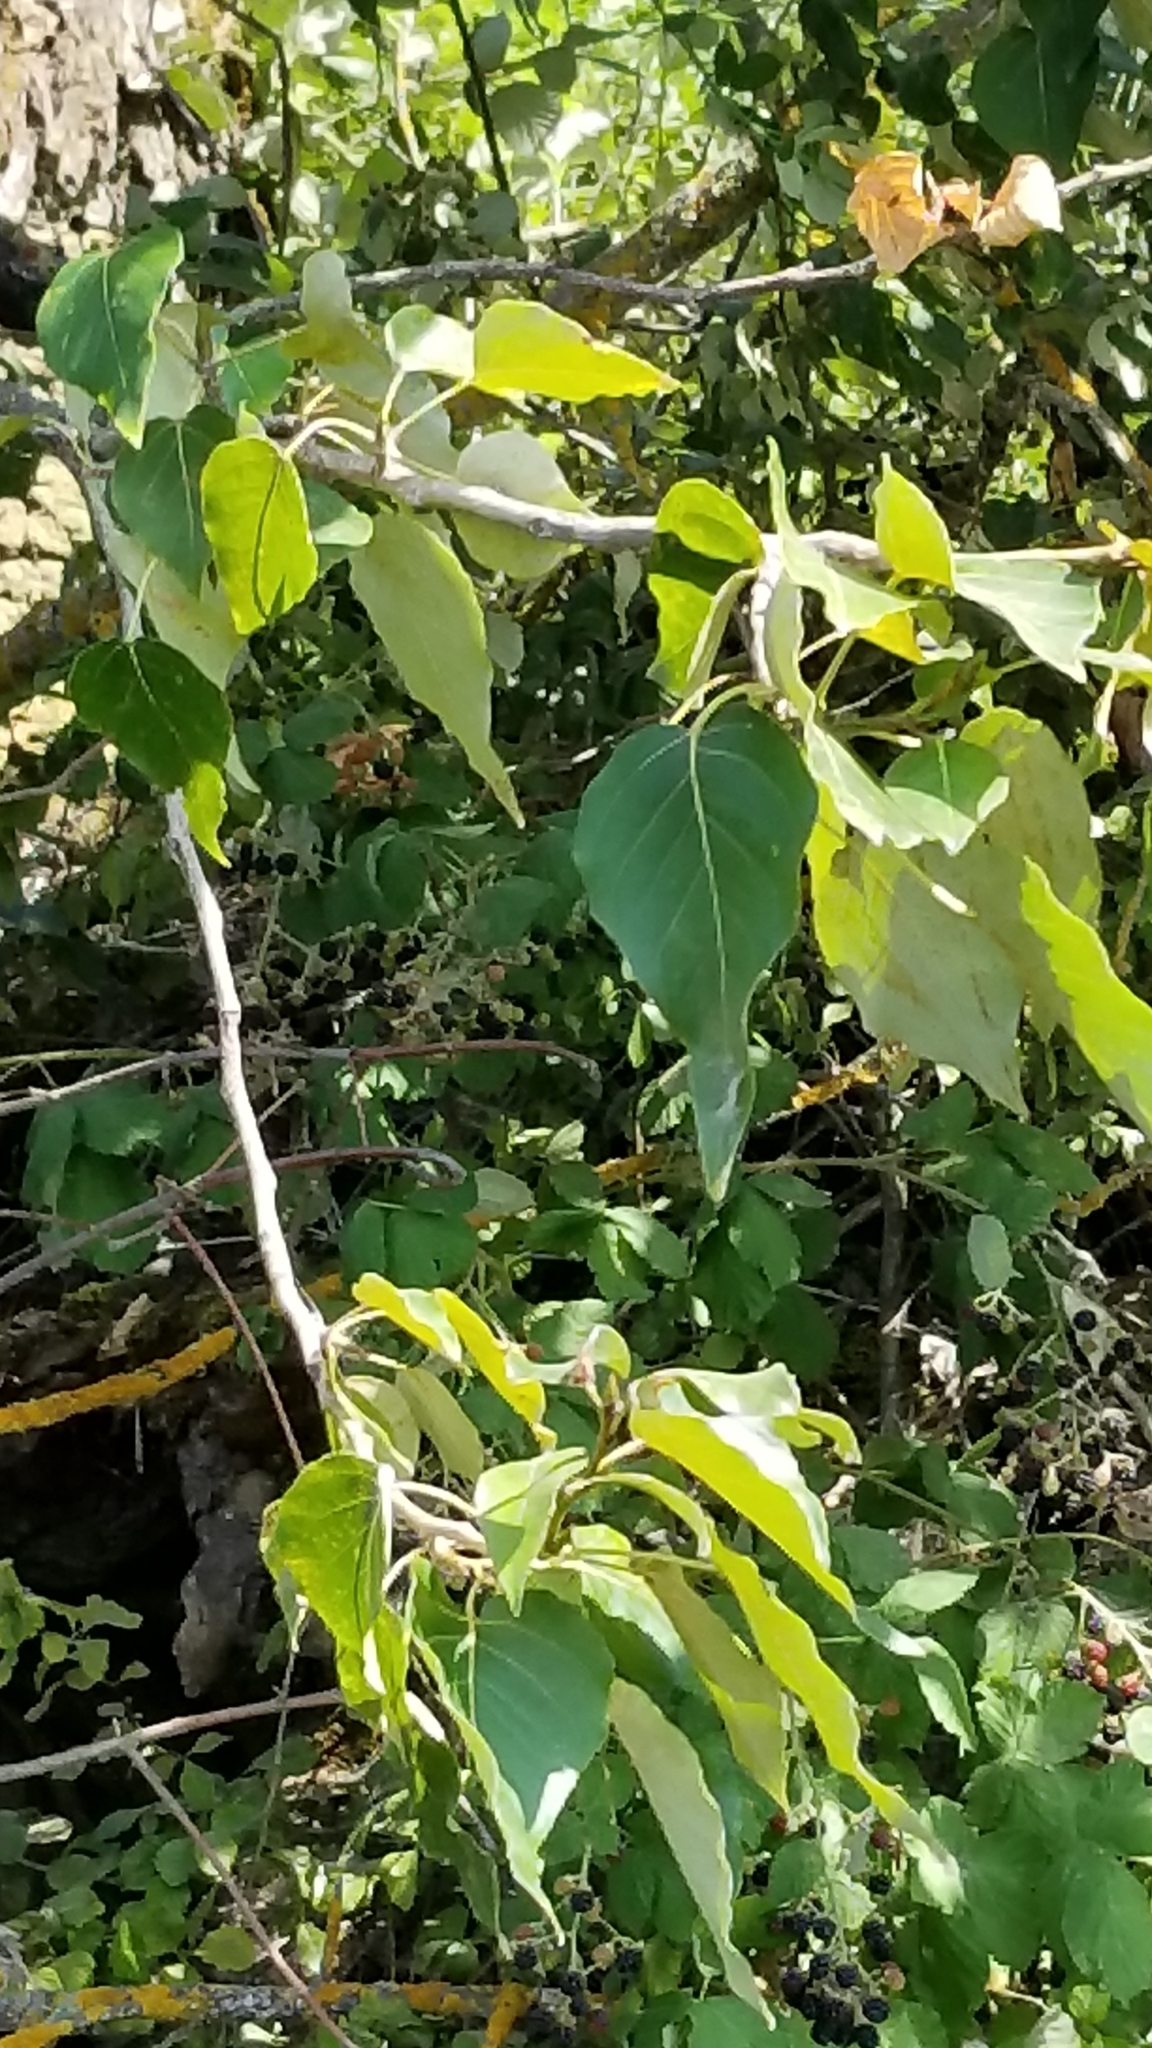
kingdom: Plantae
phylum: Tracheophyta
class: Magnoliopsida
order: Malpighiales
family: Salicaceae
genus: Populus
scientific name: Populus trichocarpa
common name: Black cottonwood
